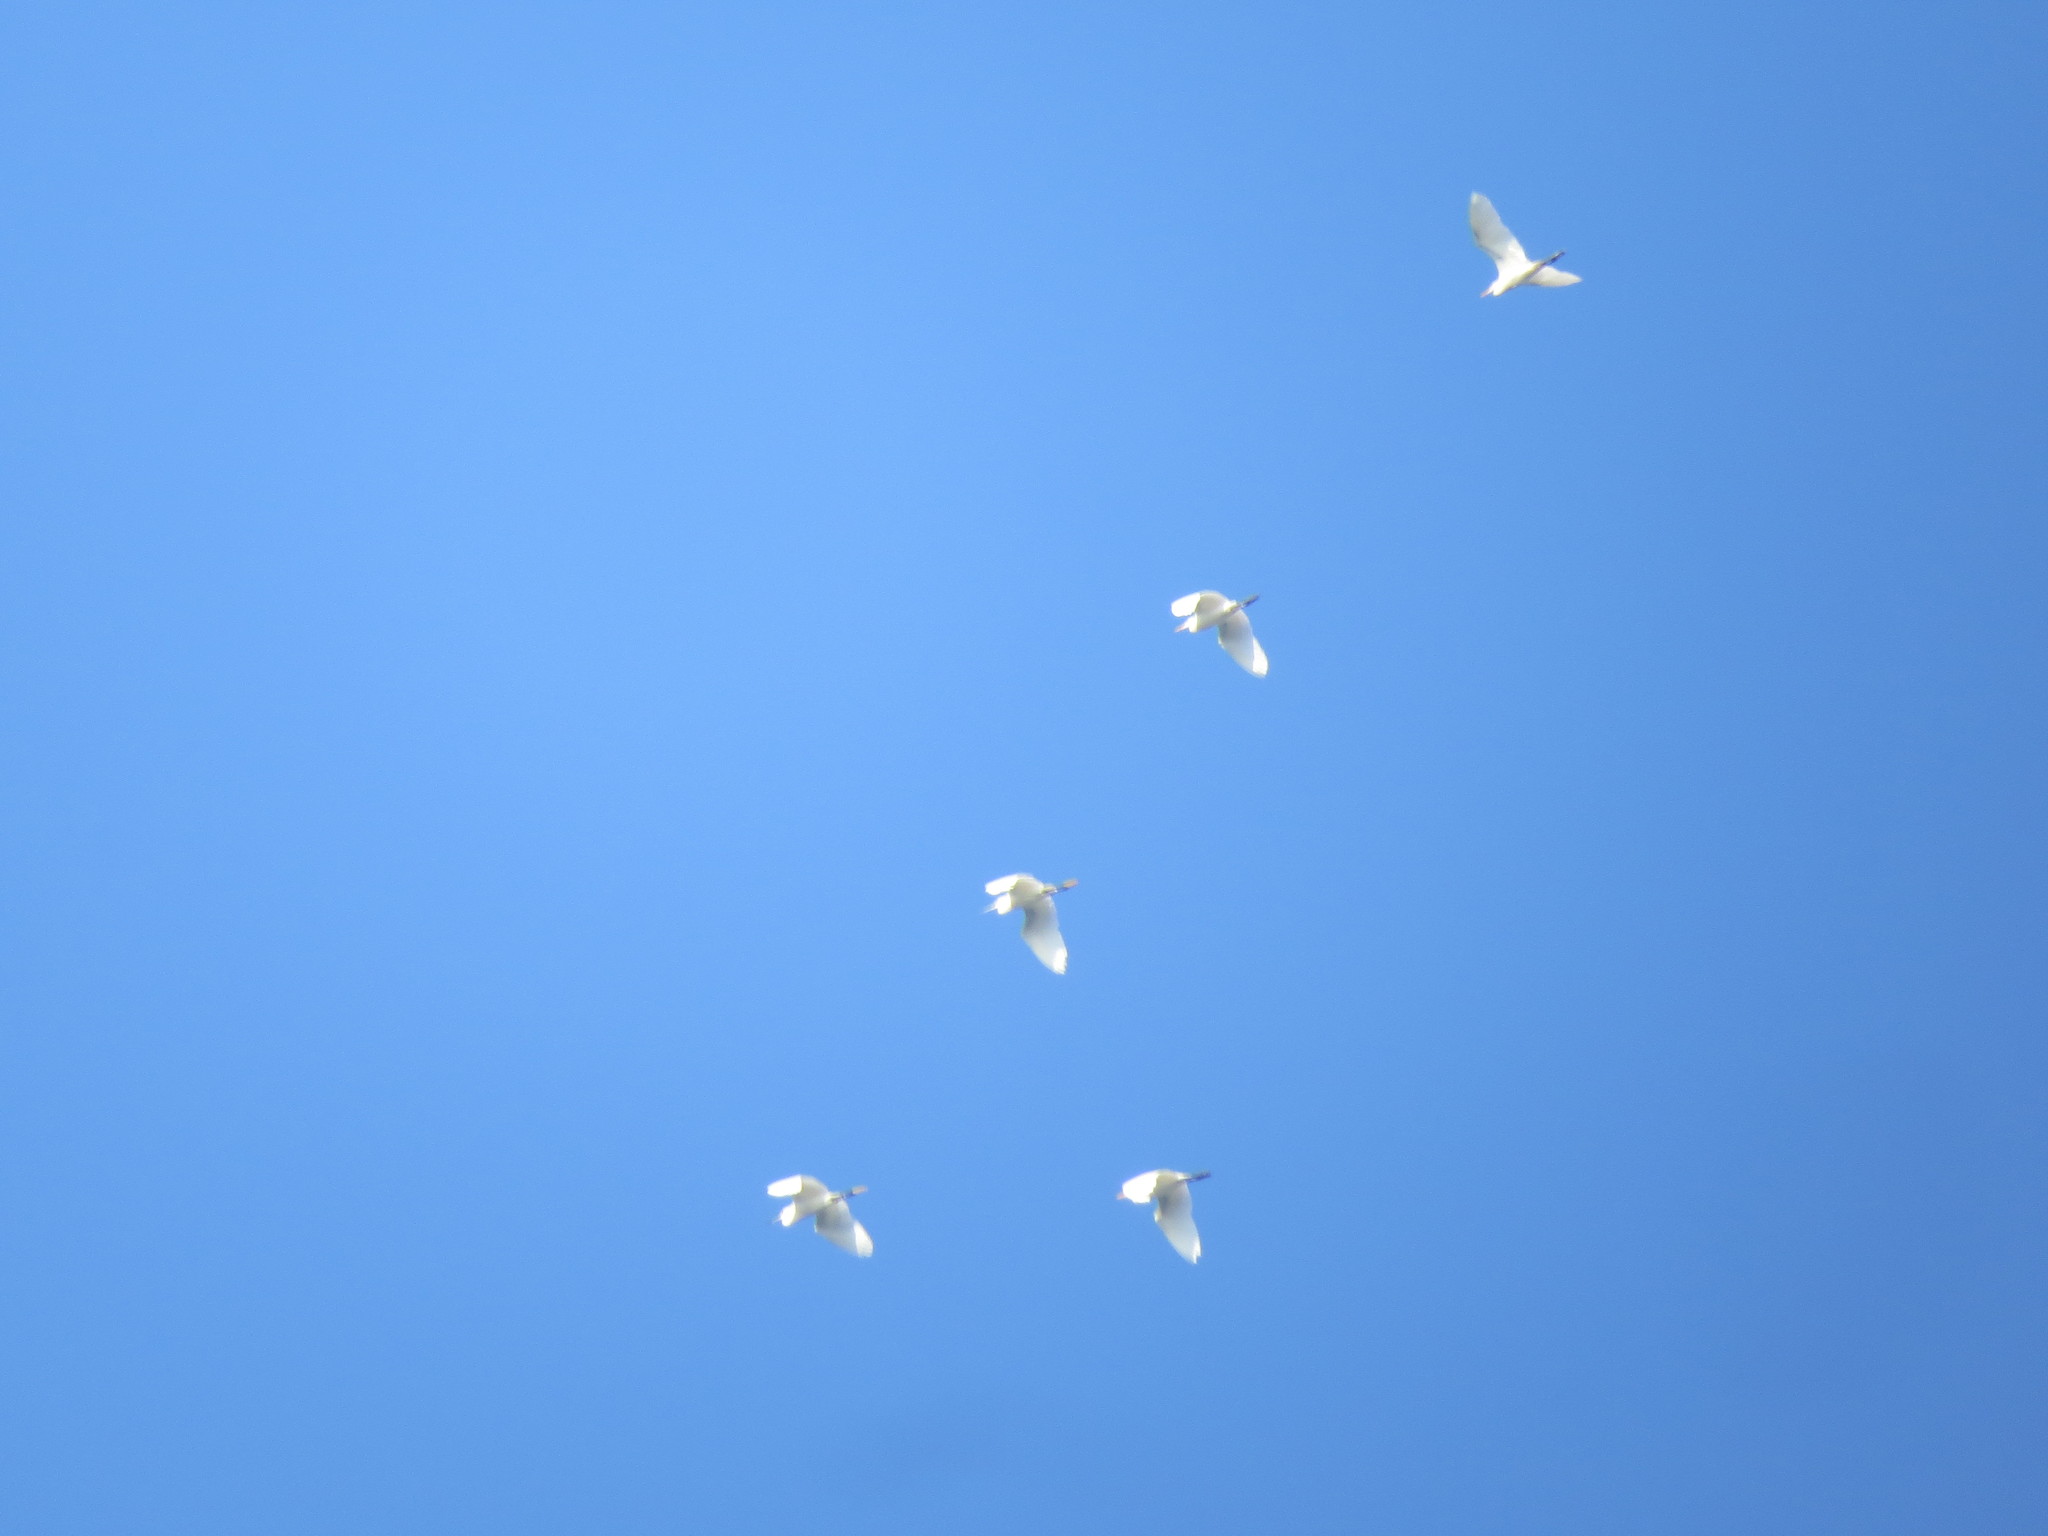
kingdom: Animalia
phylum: Chordata
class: Aves
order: Pelecaniformes
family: Ardeidae
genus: Bubulcus
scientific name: Bubulcus ibis
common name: Cattle egret
